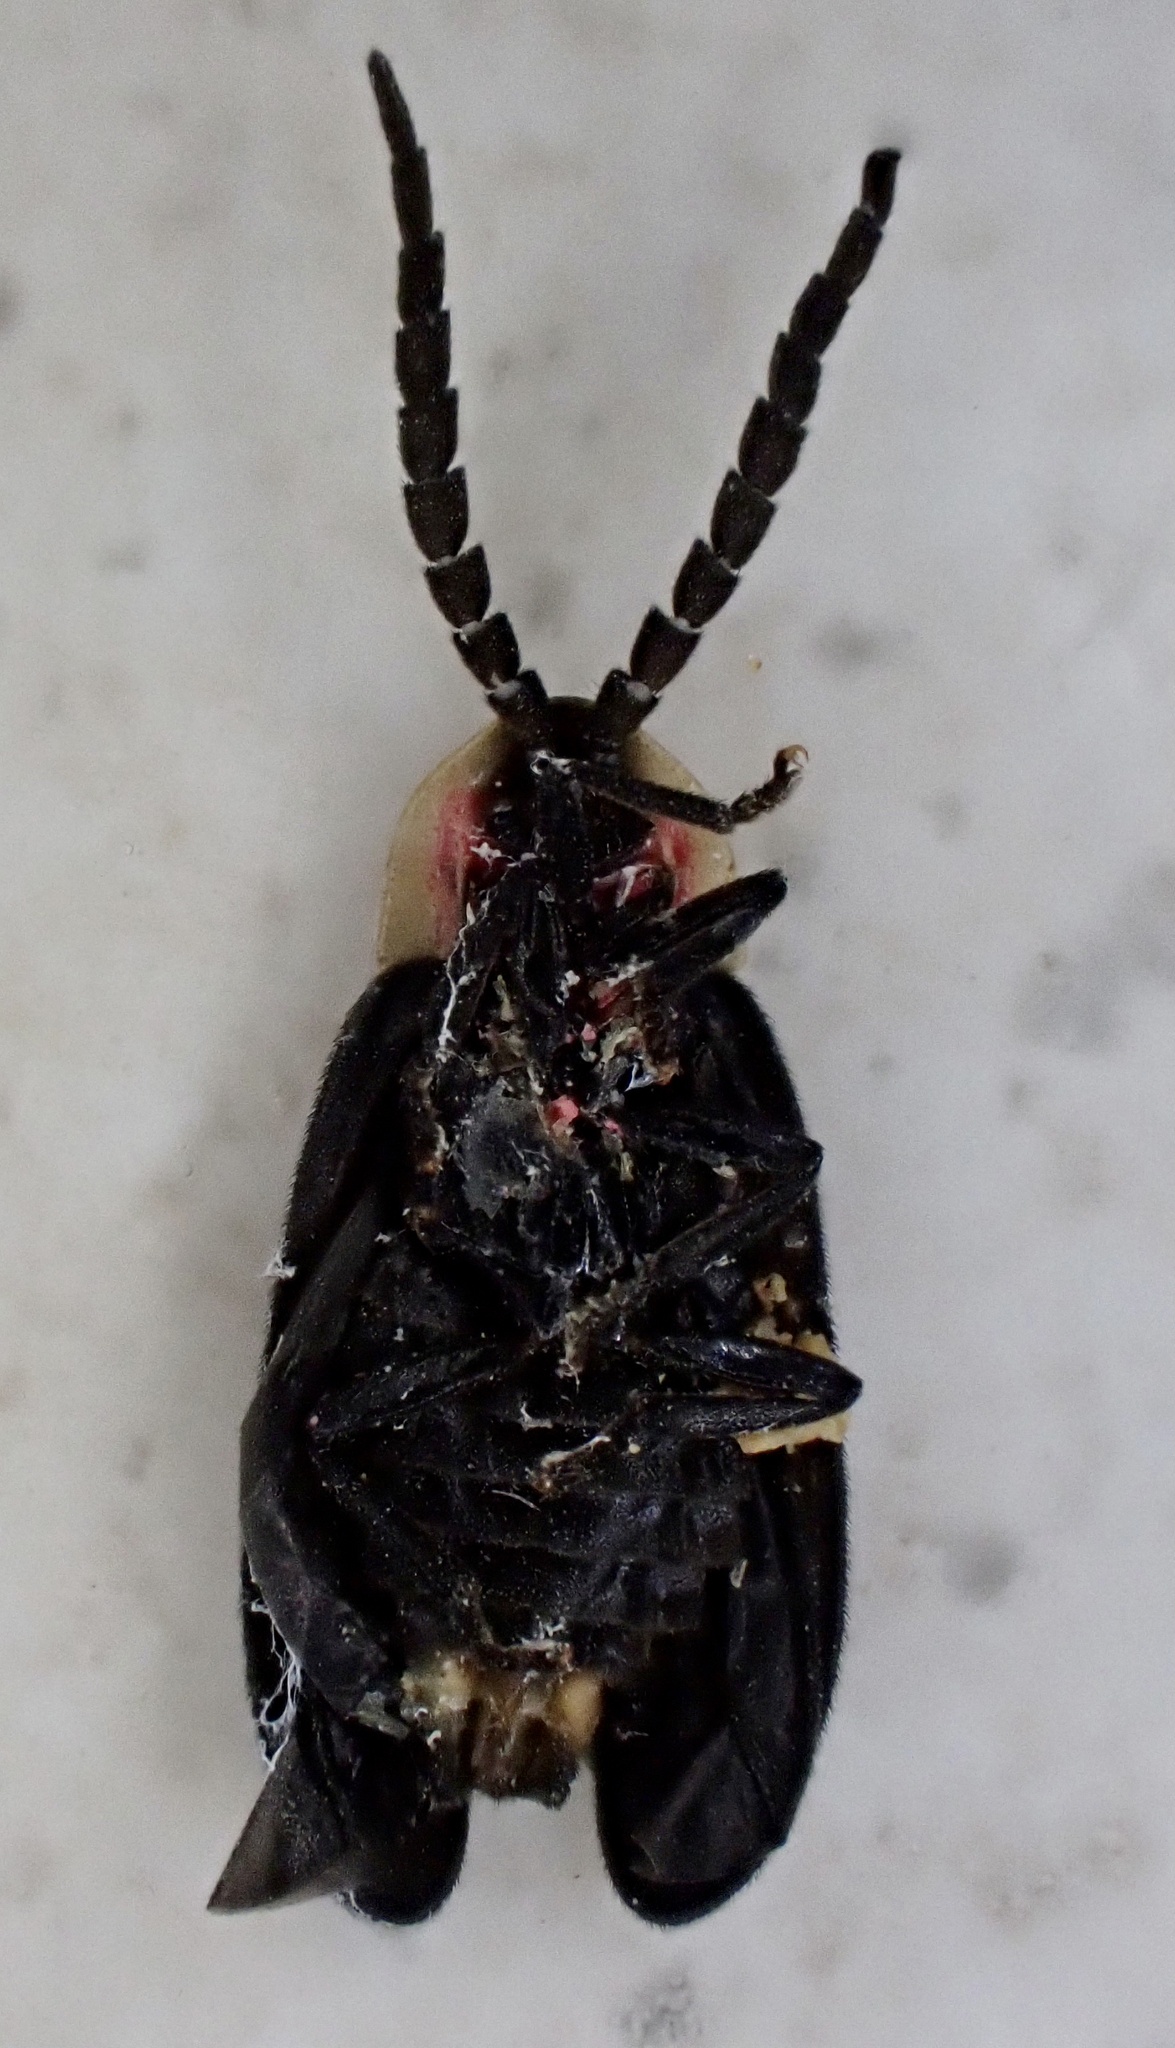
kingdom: Animalia
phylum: Arthropoda
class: Insecta
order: Coleoptera
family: Lampyridae
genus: Lucidota
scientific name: Lucidota atra
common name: Black firefly
